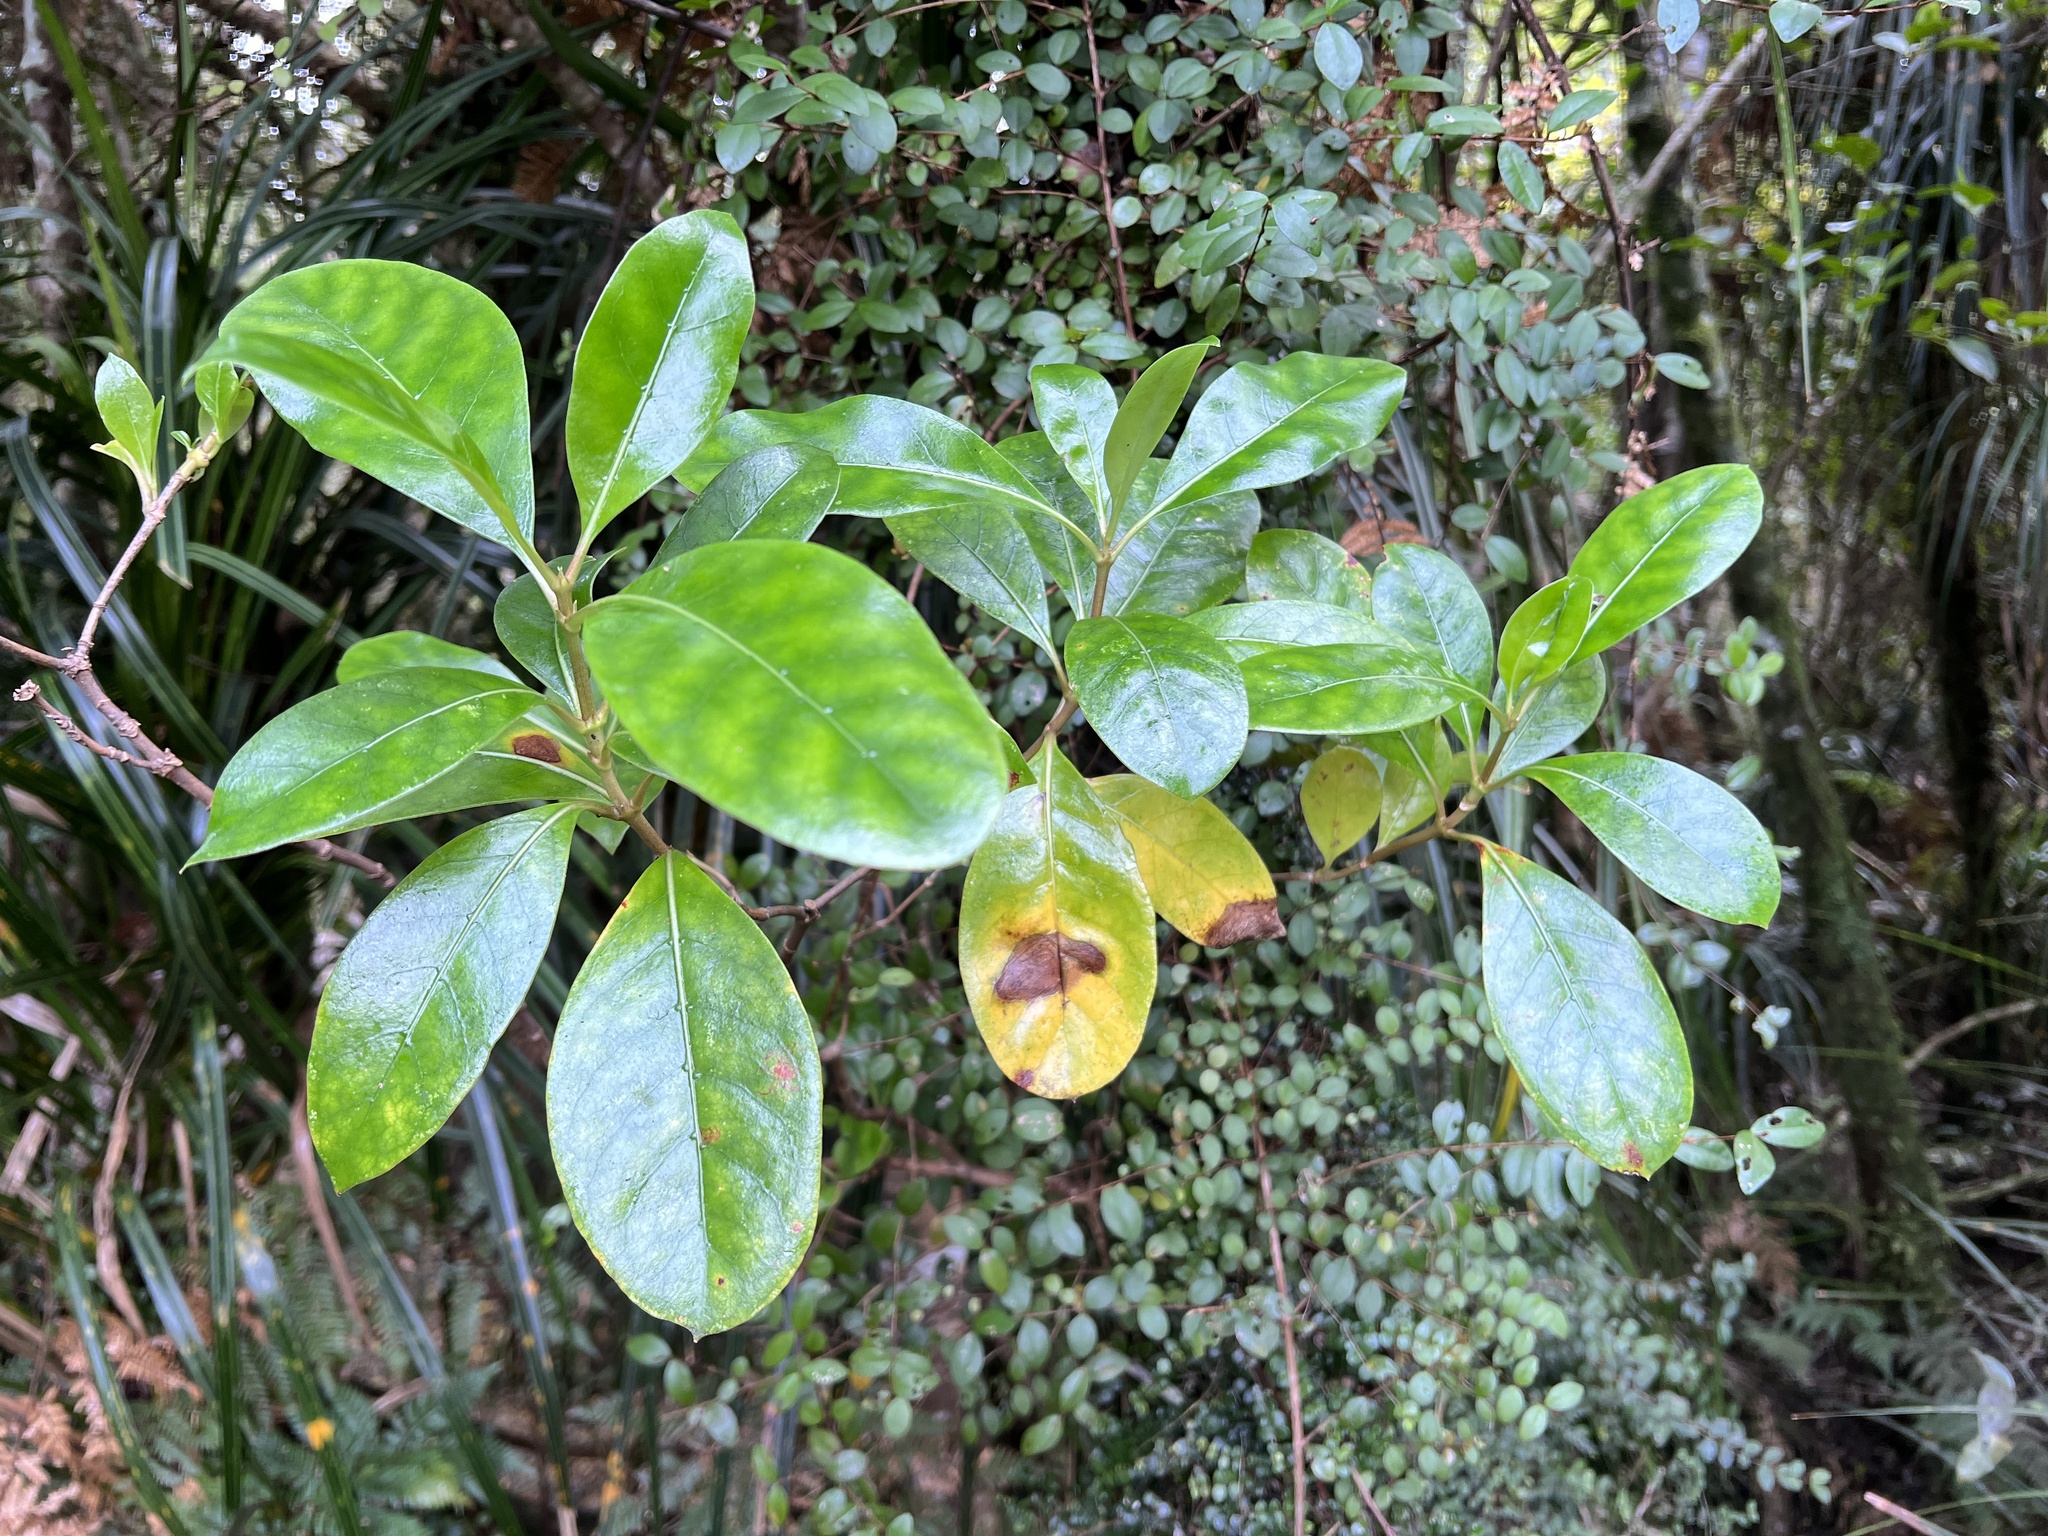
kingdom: Plantae
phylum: Tracheophyta
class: Magnoliopsida
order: Gentianales
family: Rubiaceae
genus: Coprosma
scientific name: Coprosma lucida
